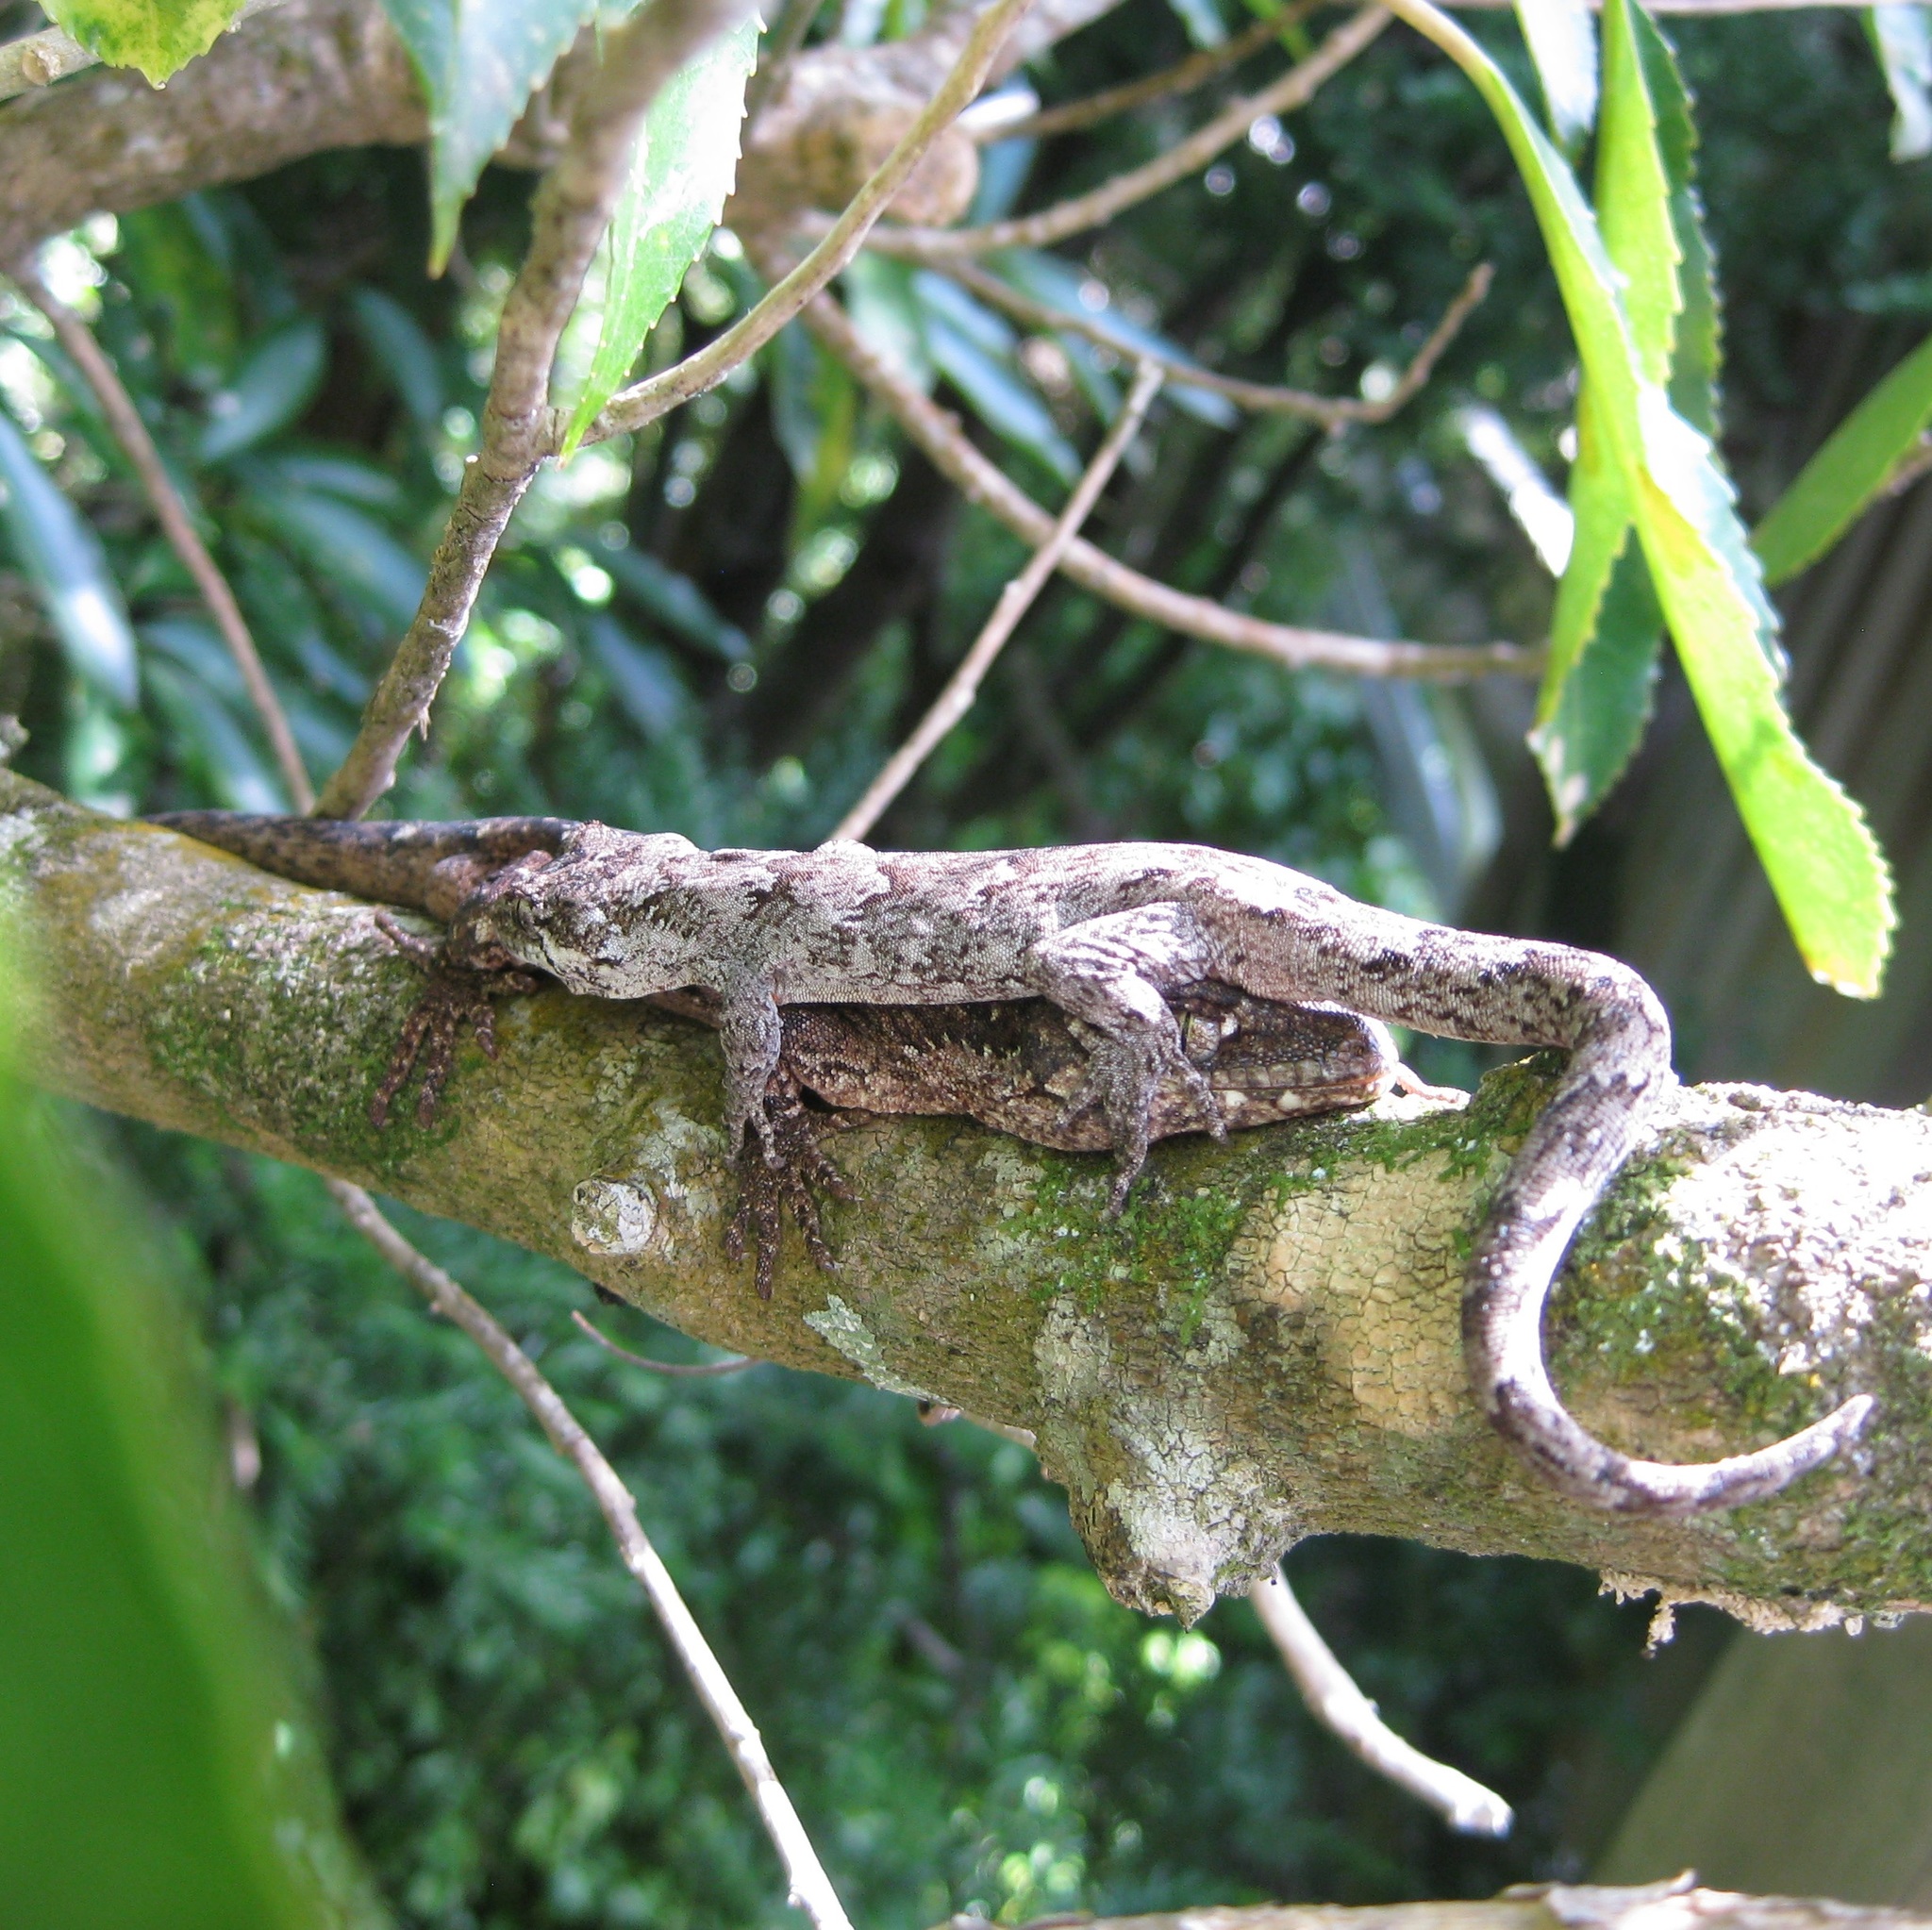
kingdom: Animalia
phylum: Chordata
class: Squamata
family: Diplodactylidae
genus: Mokopirirakau
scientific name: Mokopirirakau
